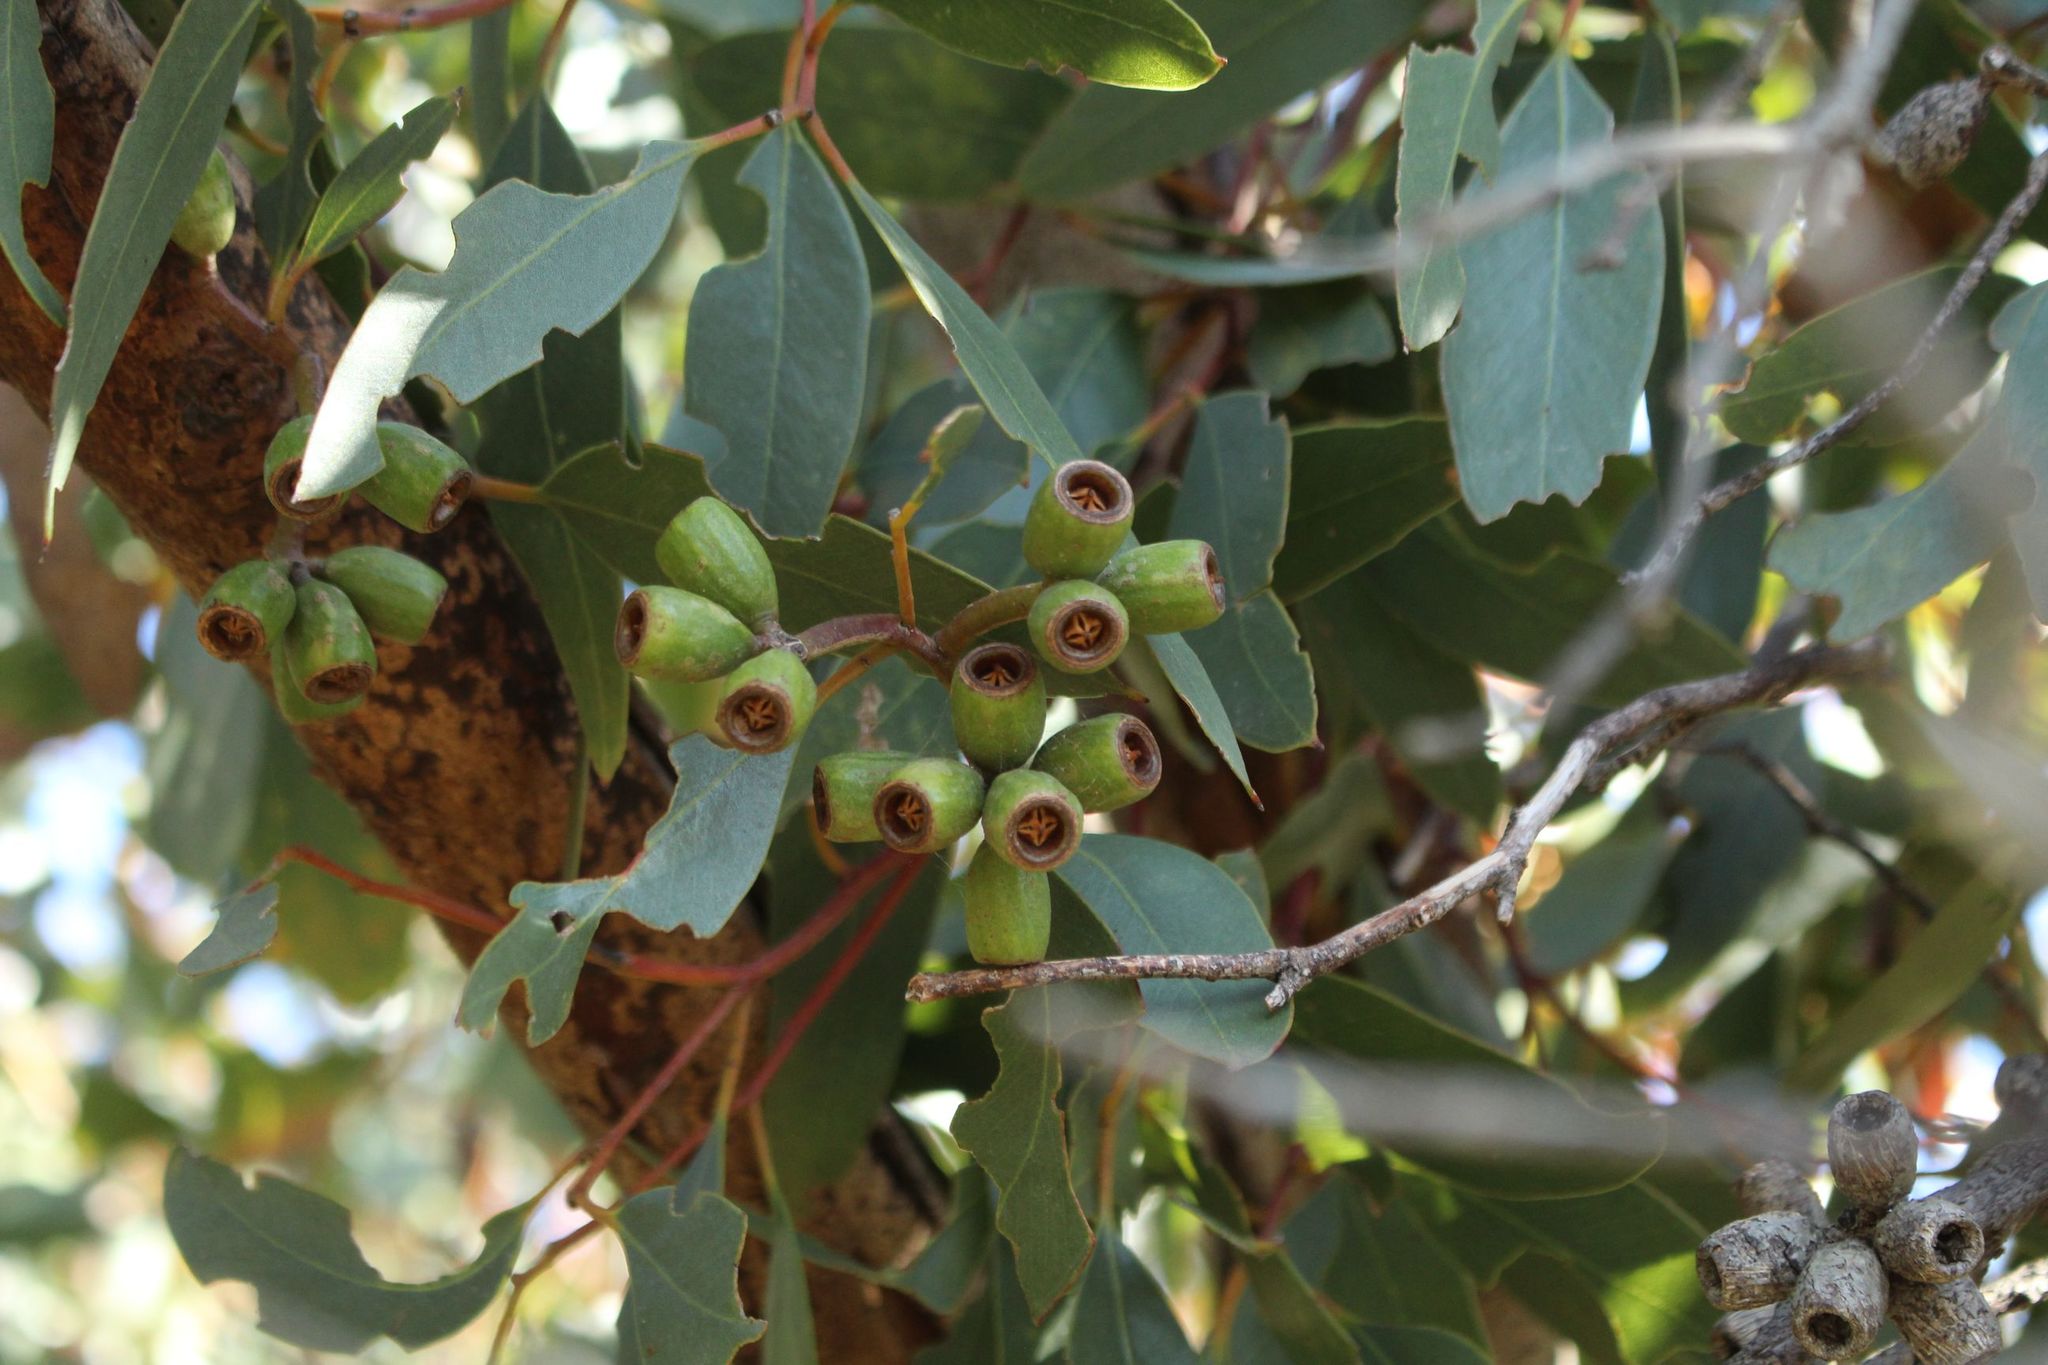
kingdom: Plantae
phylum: Tracheophyta
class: Magnoliopsida
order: Myrtales
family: Myrtaceae
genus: Eucalyptus
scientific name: Eucalyptus angulosa
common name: Ridge-fruited mallee
